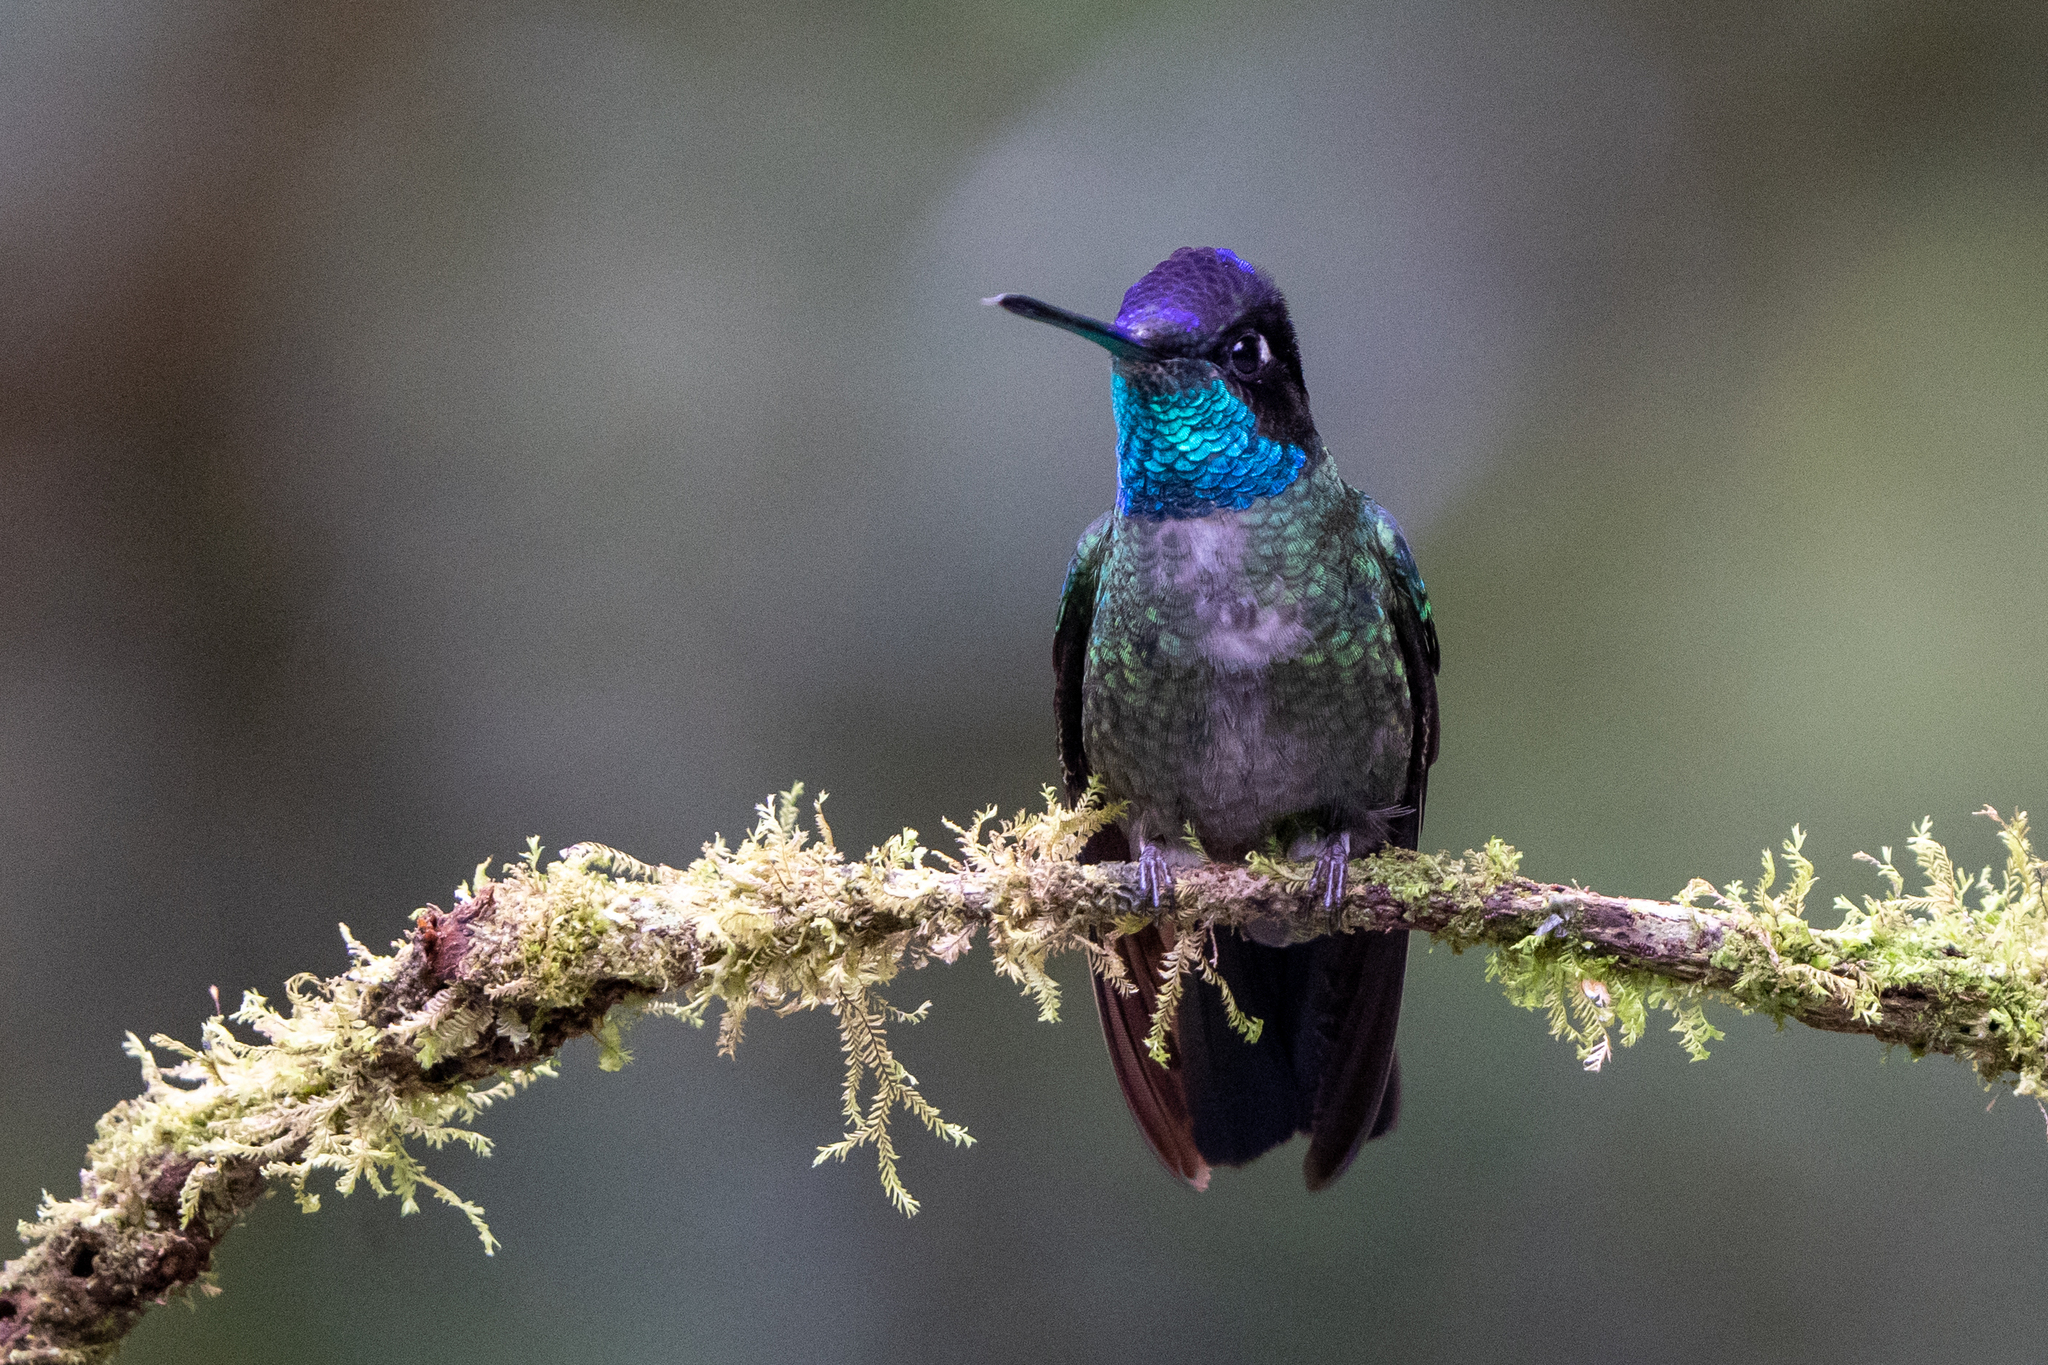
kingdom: Animalia
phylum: Chordata
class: Aves
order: Apodiformes
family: Trochilidae
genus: Eugenes
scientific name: Eugenes spectabilis
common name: Talamanca hummingbird
